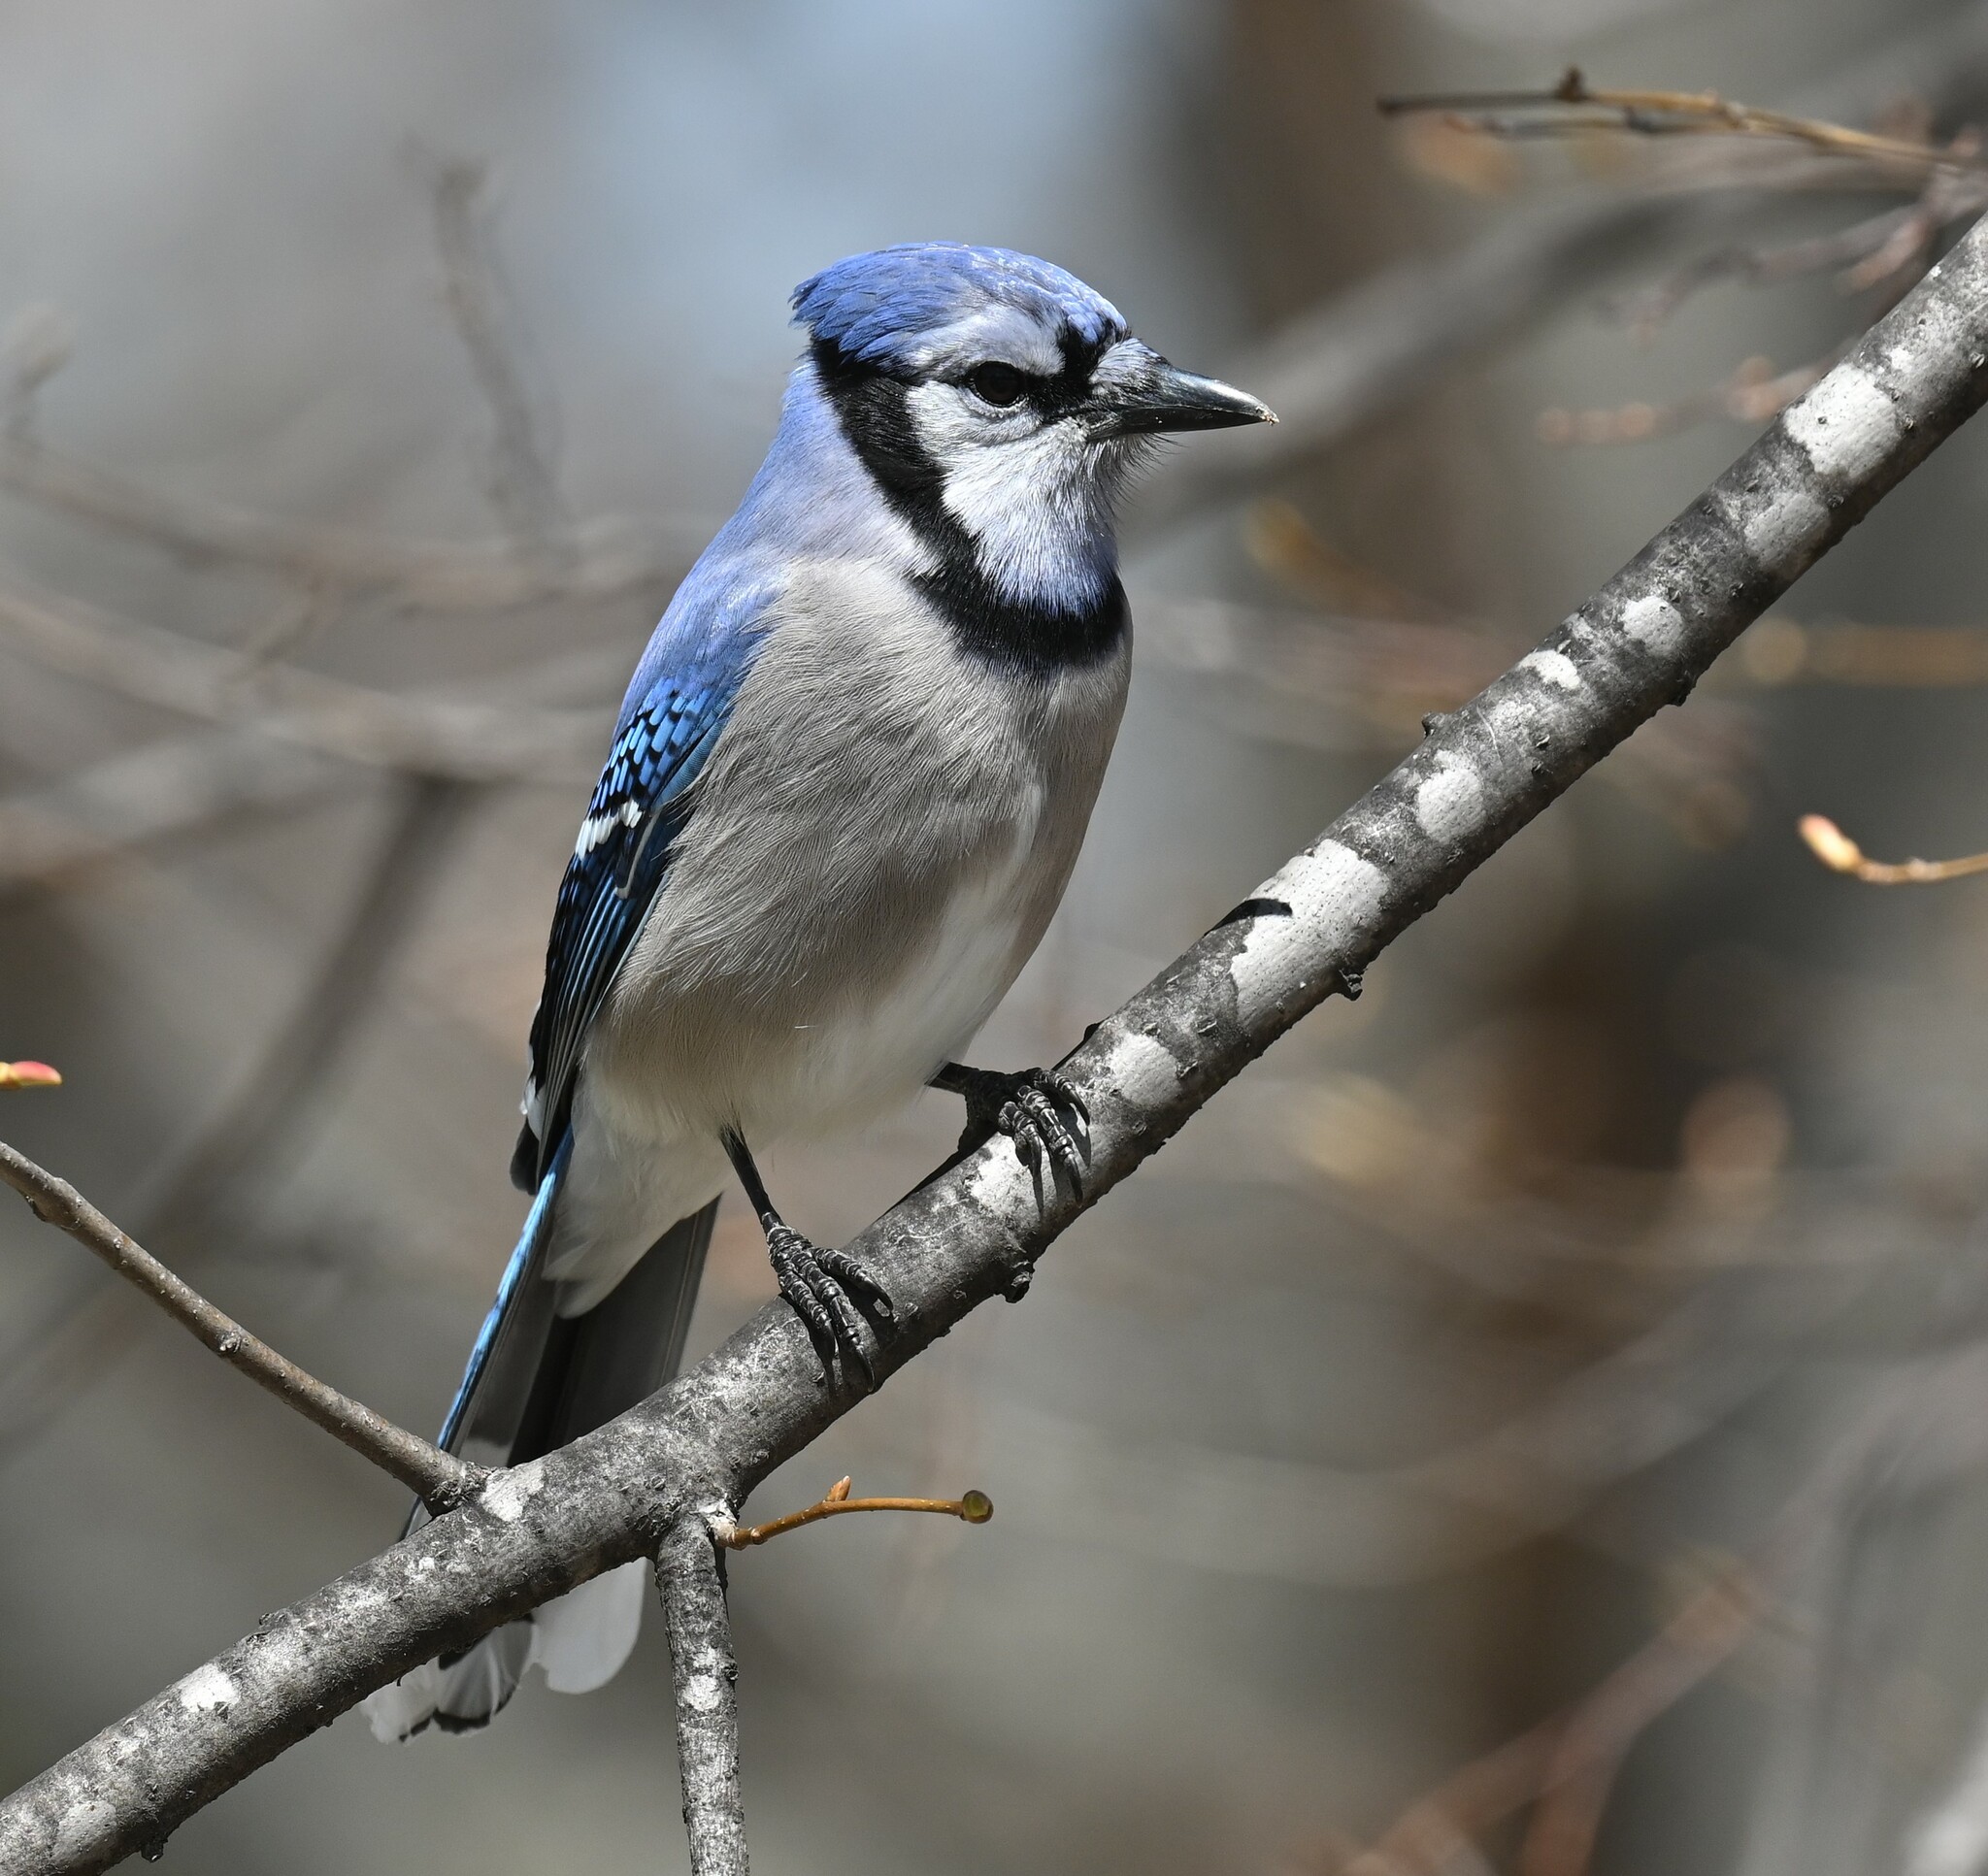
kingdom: Animalia
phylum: Chordata
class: Aves
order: Passeriformes
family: Corvidae
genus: Cyanocitta
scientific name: Cyanocitta cristata
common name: Blue jay
